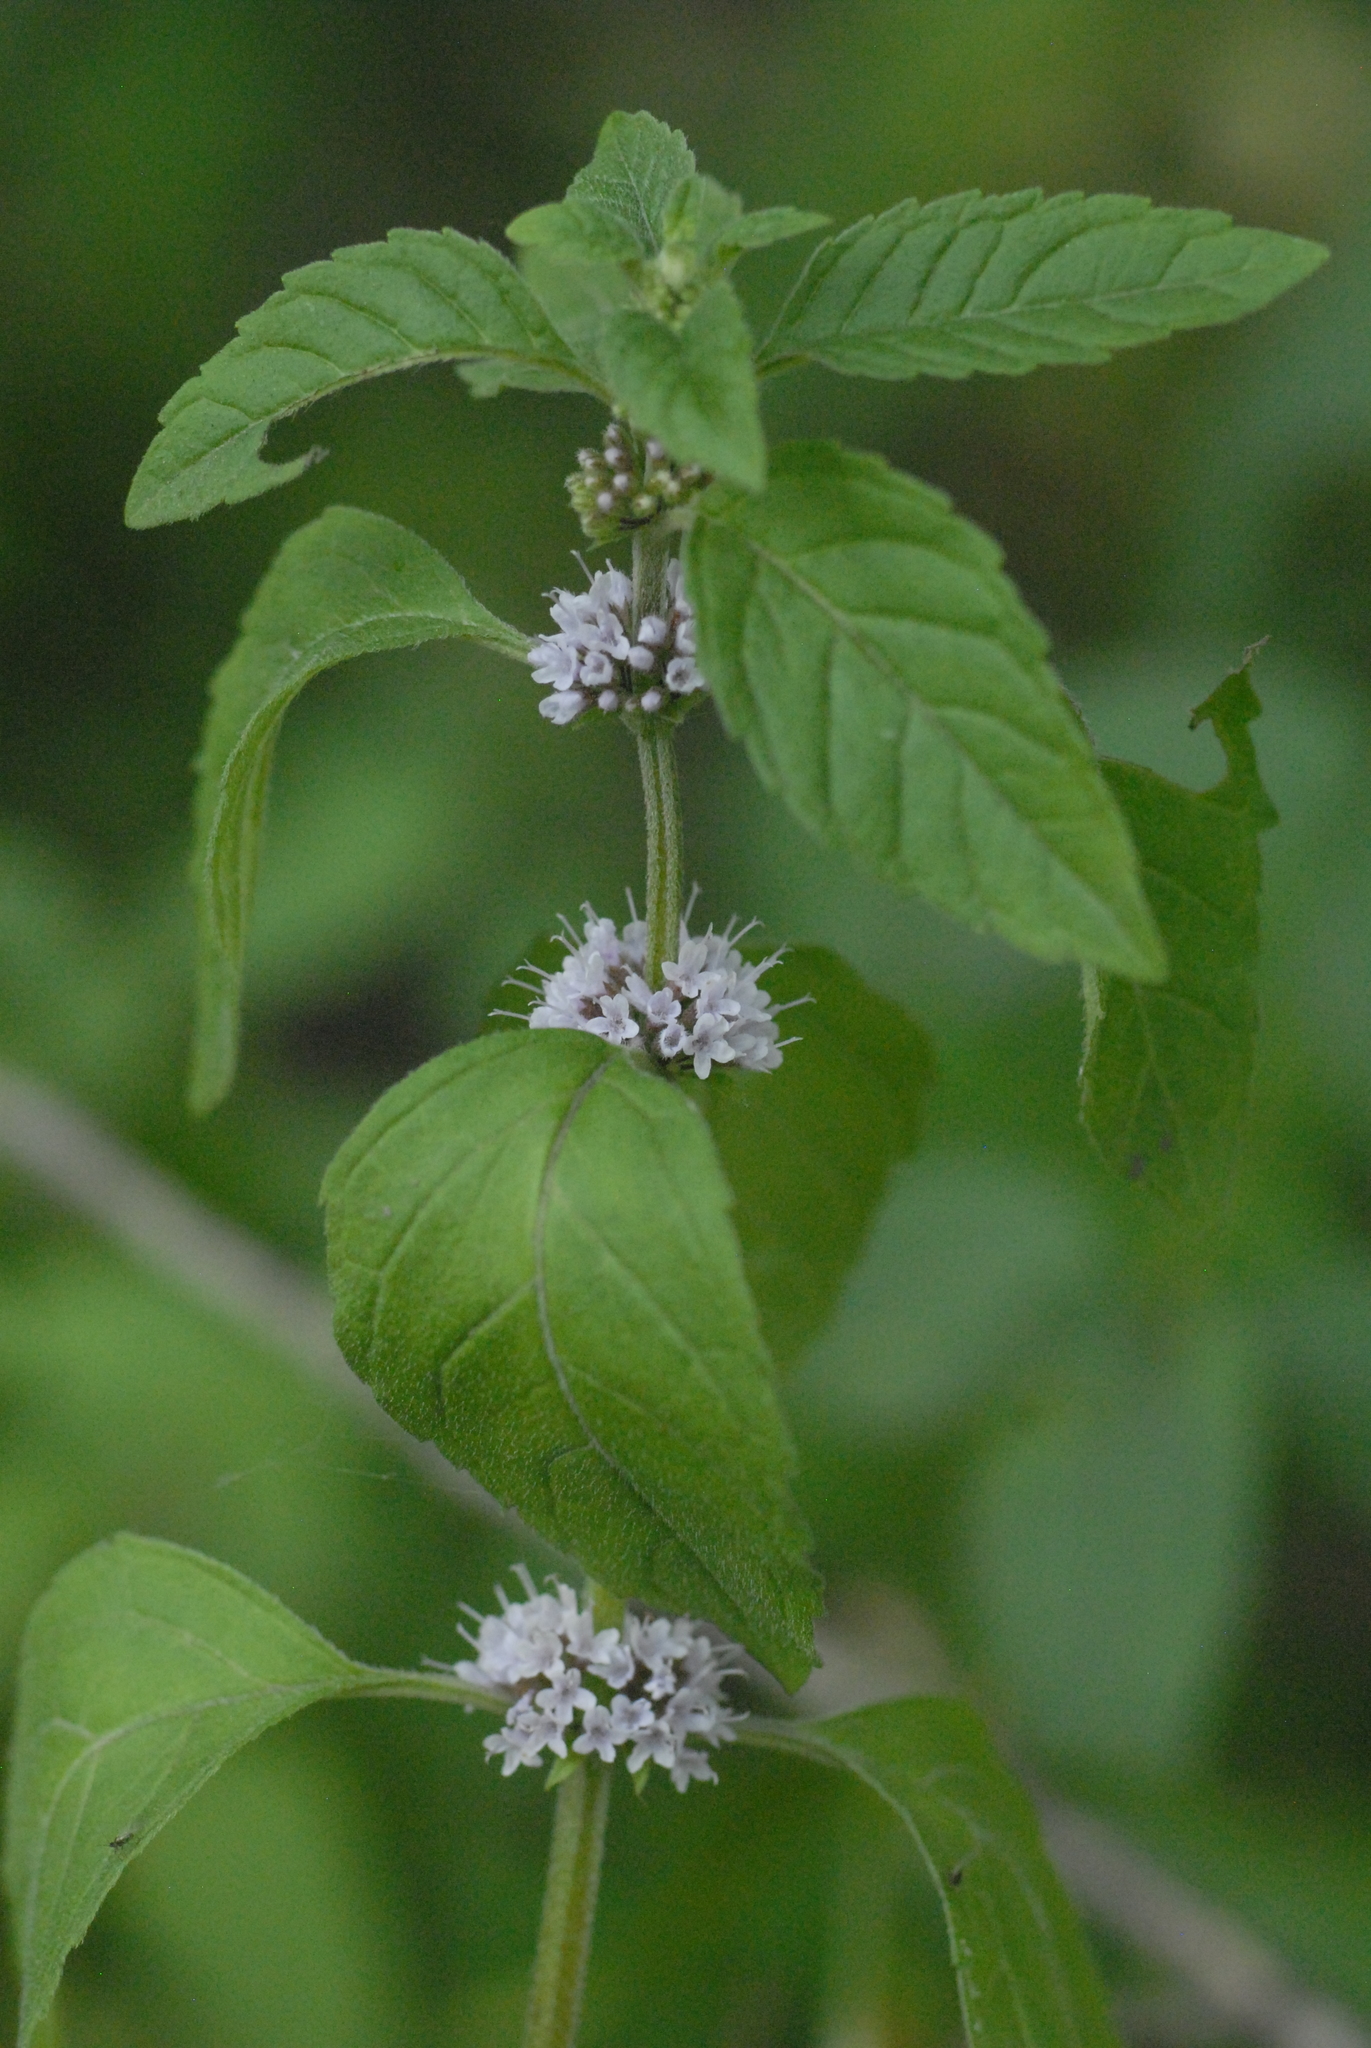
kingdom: Plantae
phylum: Tracheophyta
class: Magnoliopsida
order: Lamiales
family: Lamiaceae
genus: Mentha
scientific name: Mentha arvensis
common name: Corn mint
